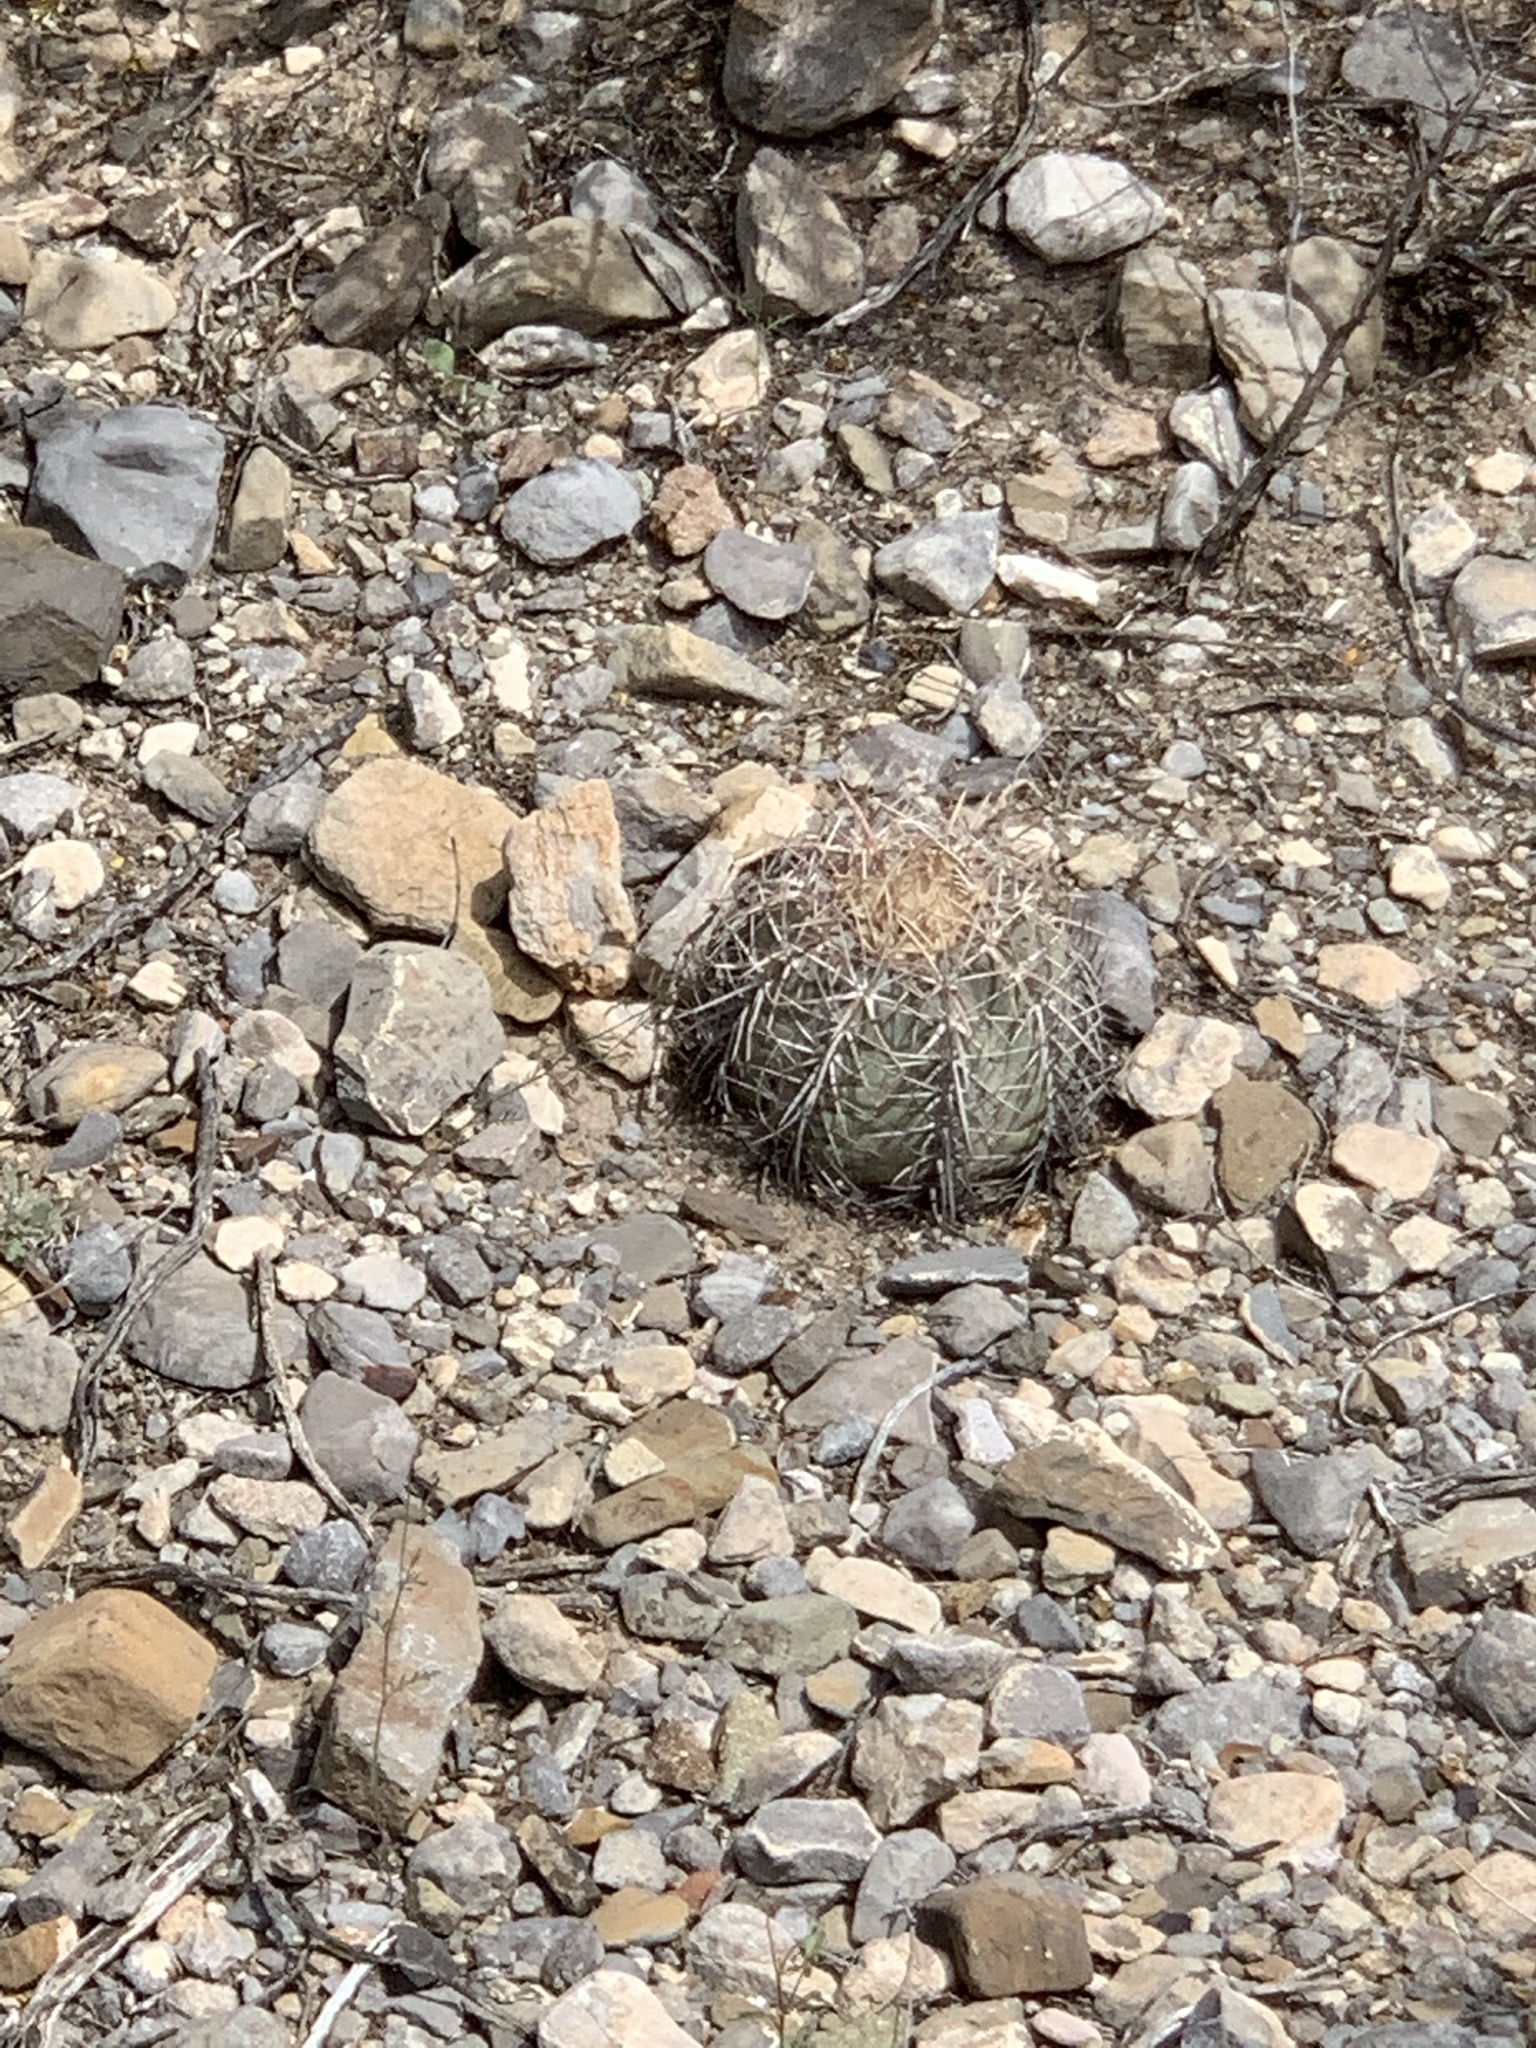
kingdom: Plantae
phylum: Tracheophyta
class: Magnoliopsida
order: Caryophyllales
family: Cactaceae
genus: Echinocactus
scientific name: Echinocactus horizonthalonius
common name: Devilshead
